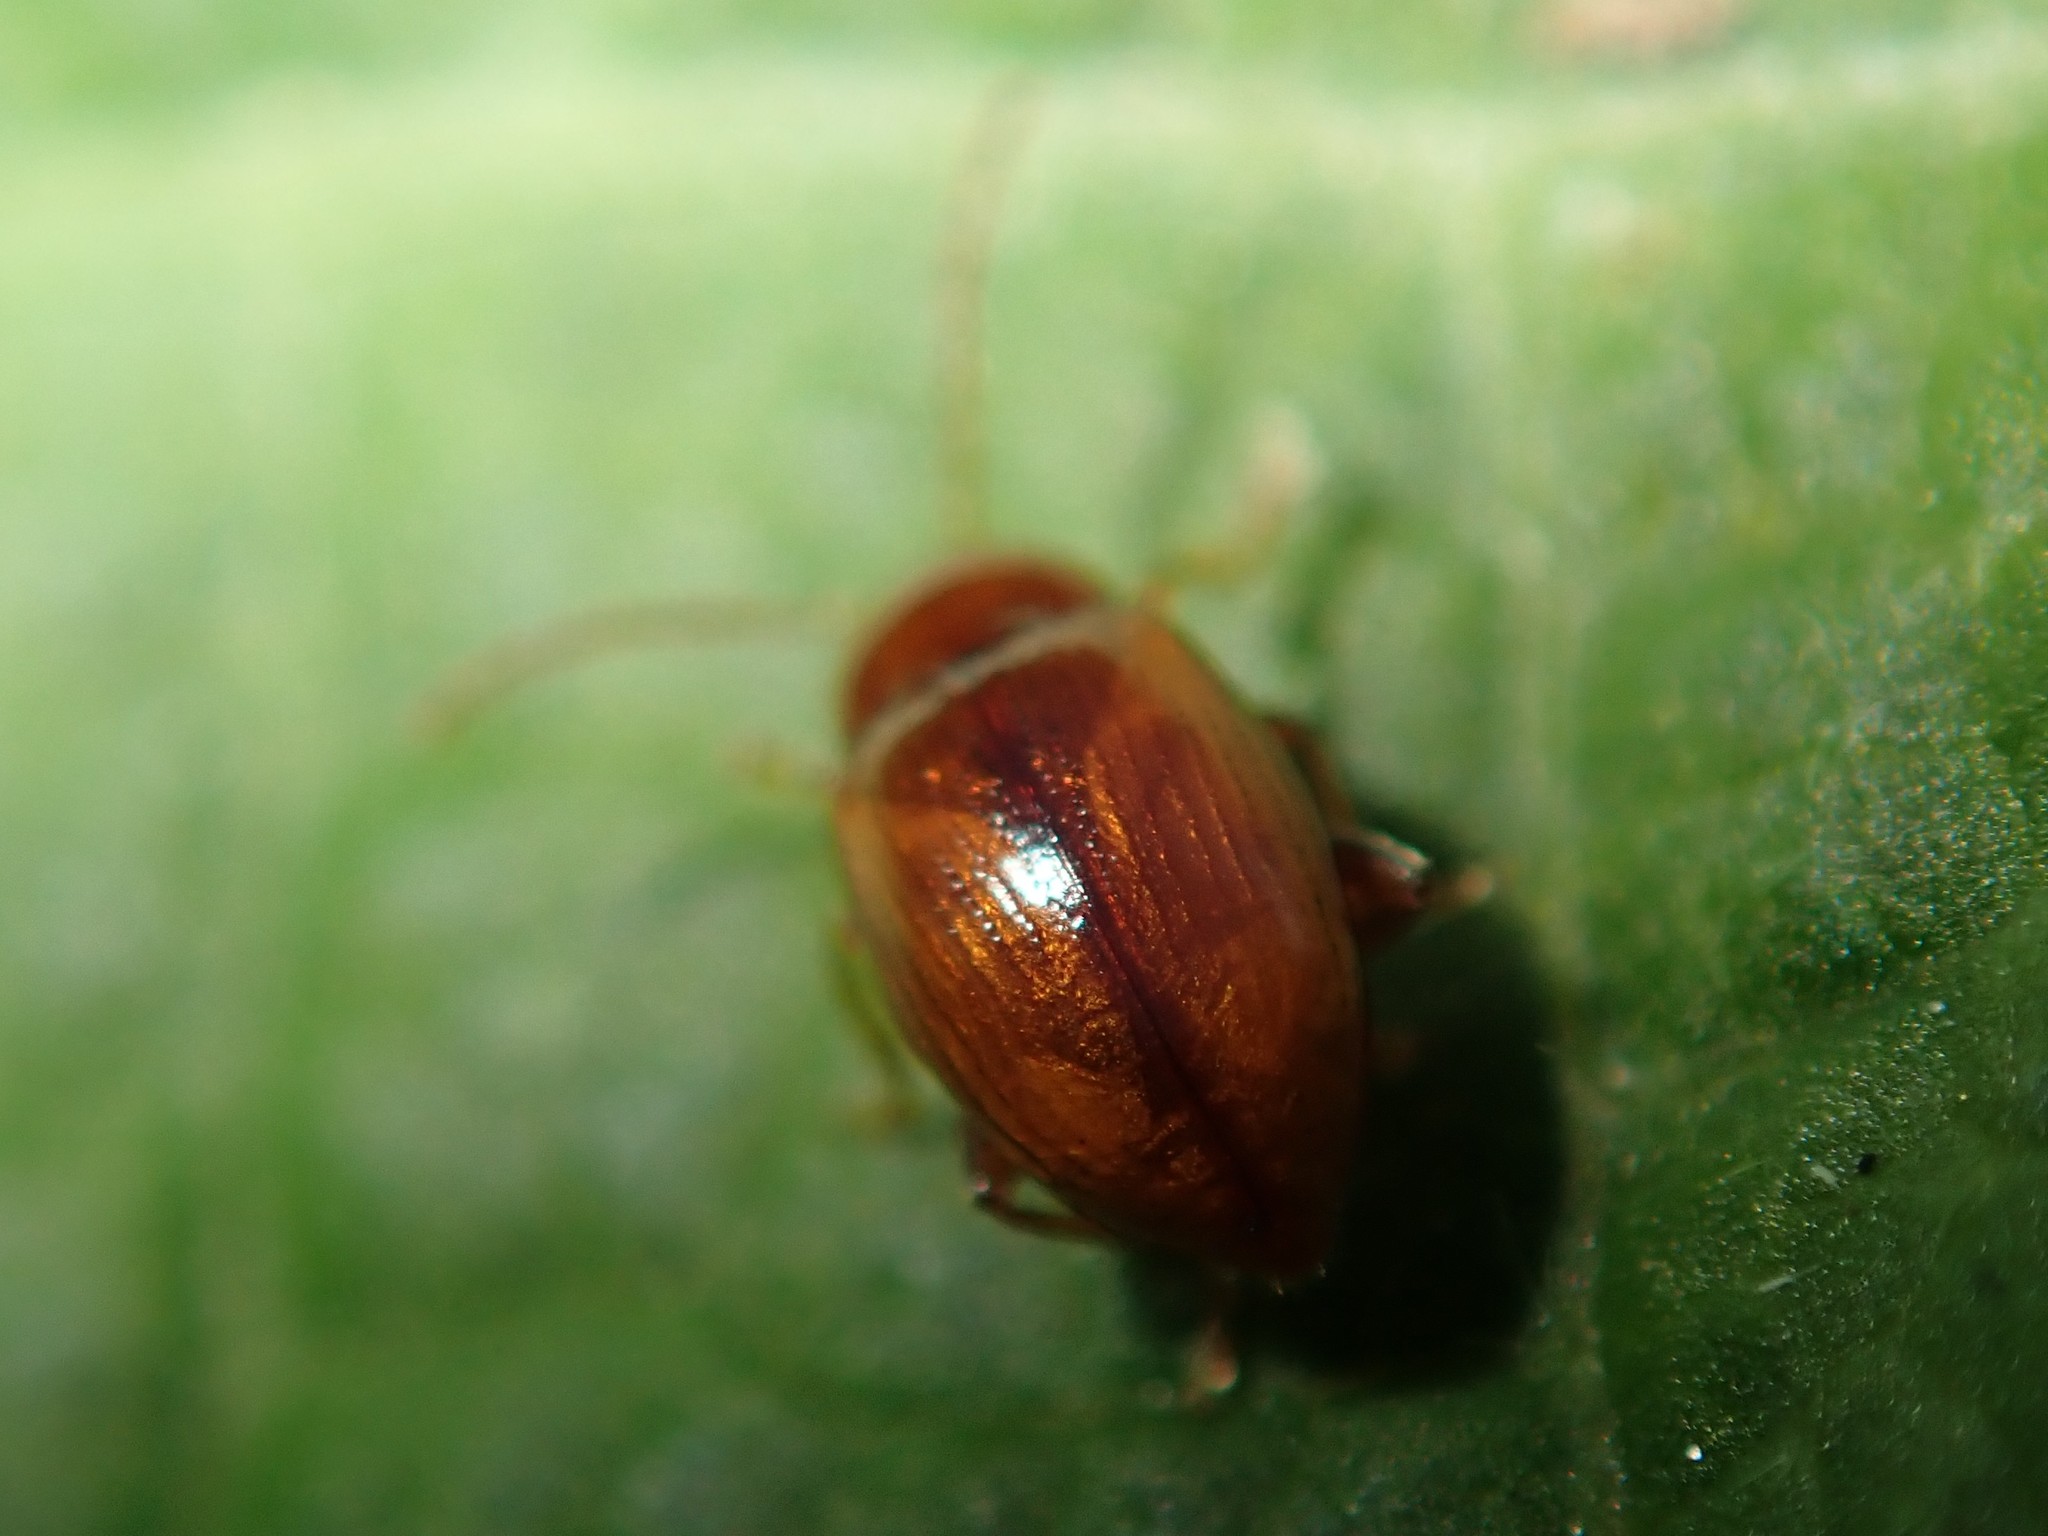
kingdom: Animalia
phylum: Arthropoda
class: Insecta
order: Coleoptera
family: Chrysomelidae
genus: Neocrepidodera
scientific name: Neocrepidodera ferruginea
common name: Wheat flea beetle
